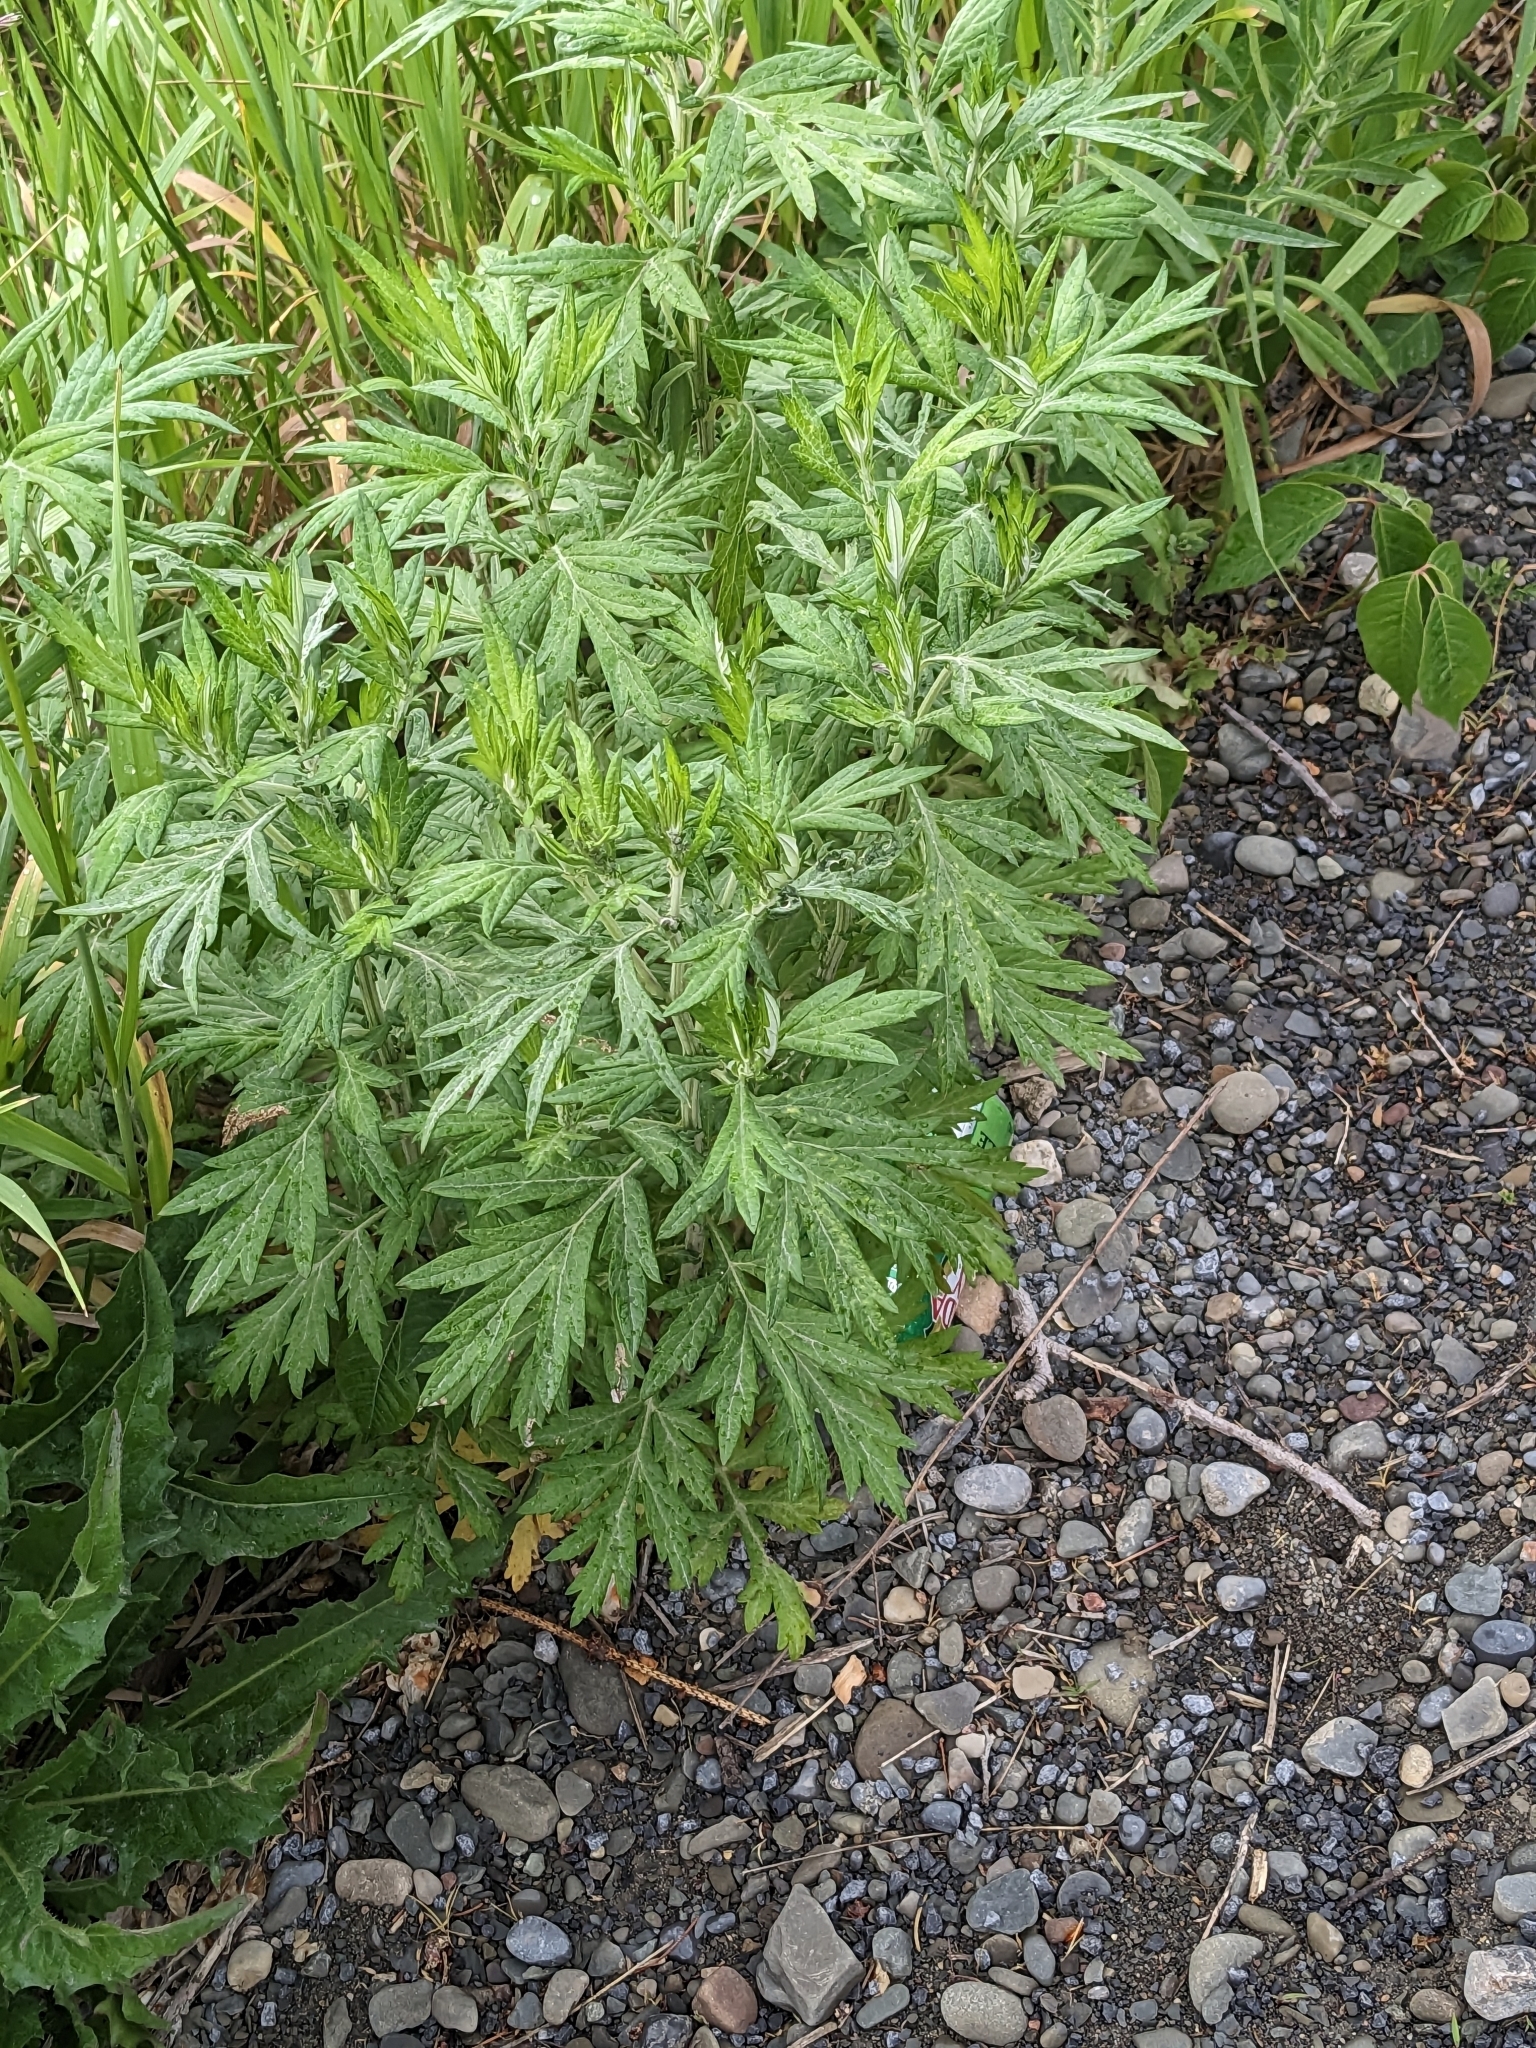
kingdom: Plantae
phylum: Tracheophyta
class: Magnoliopsida
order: Asterales
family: Asteraceae
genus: Artemisia
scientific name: Artemisia vulgaris
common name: Mugwort
